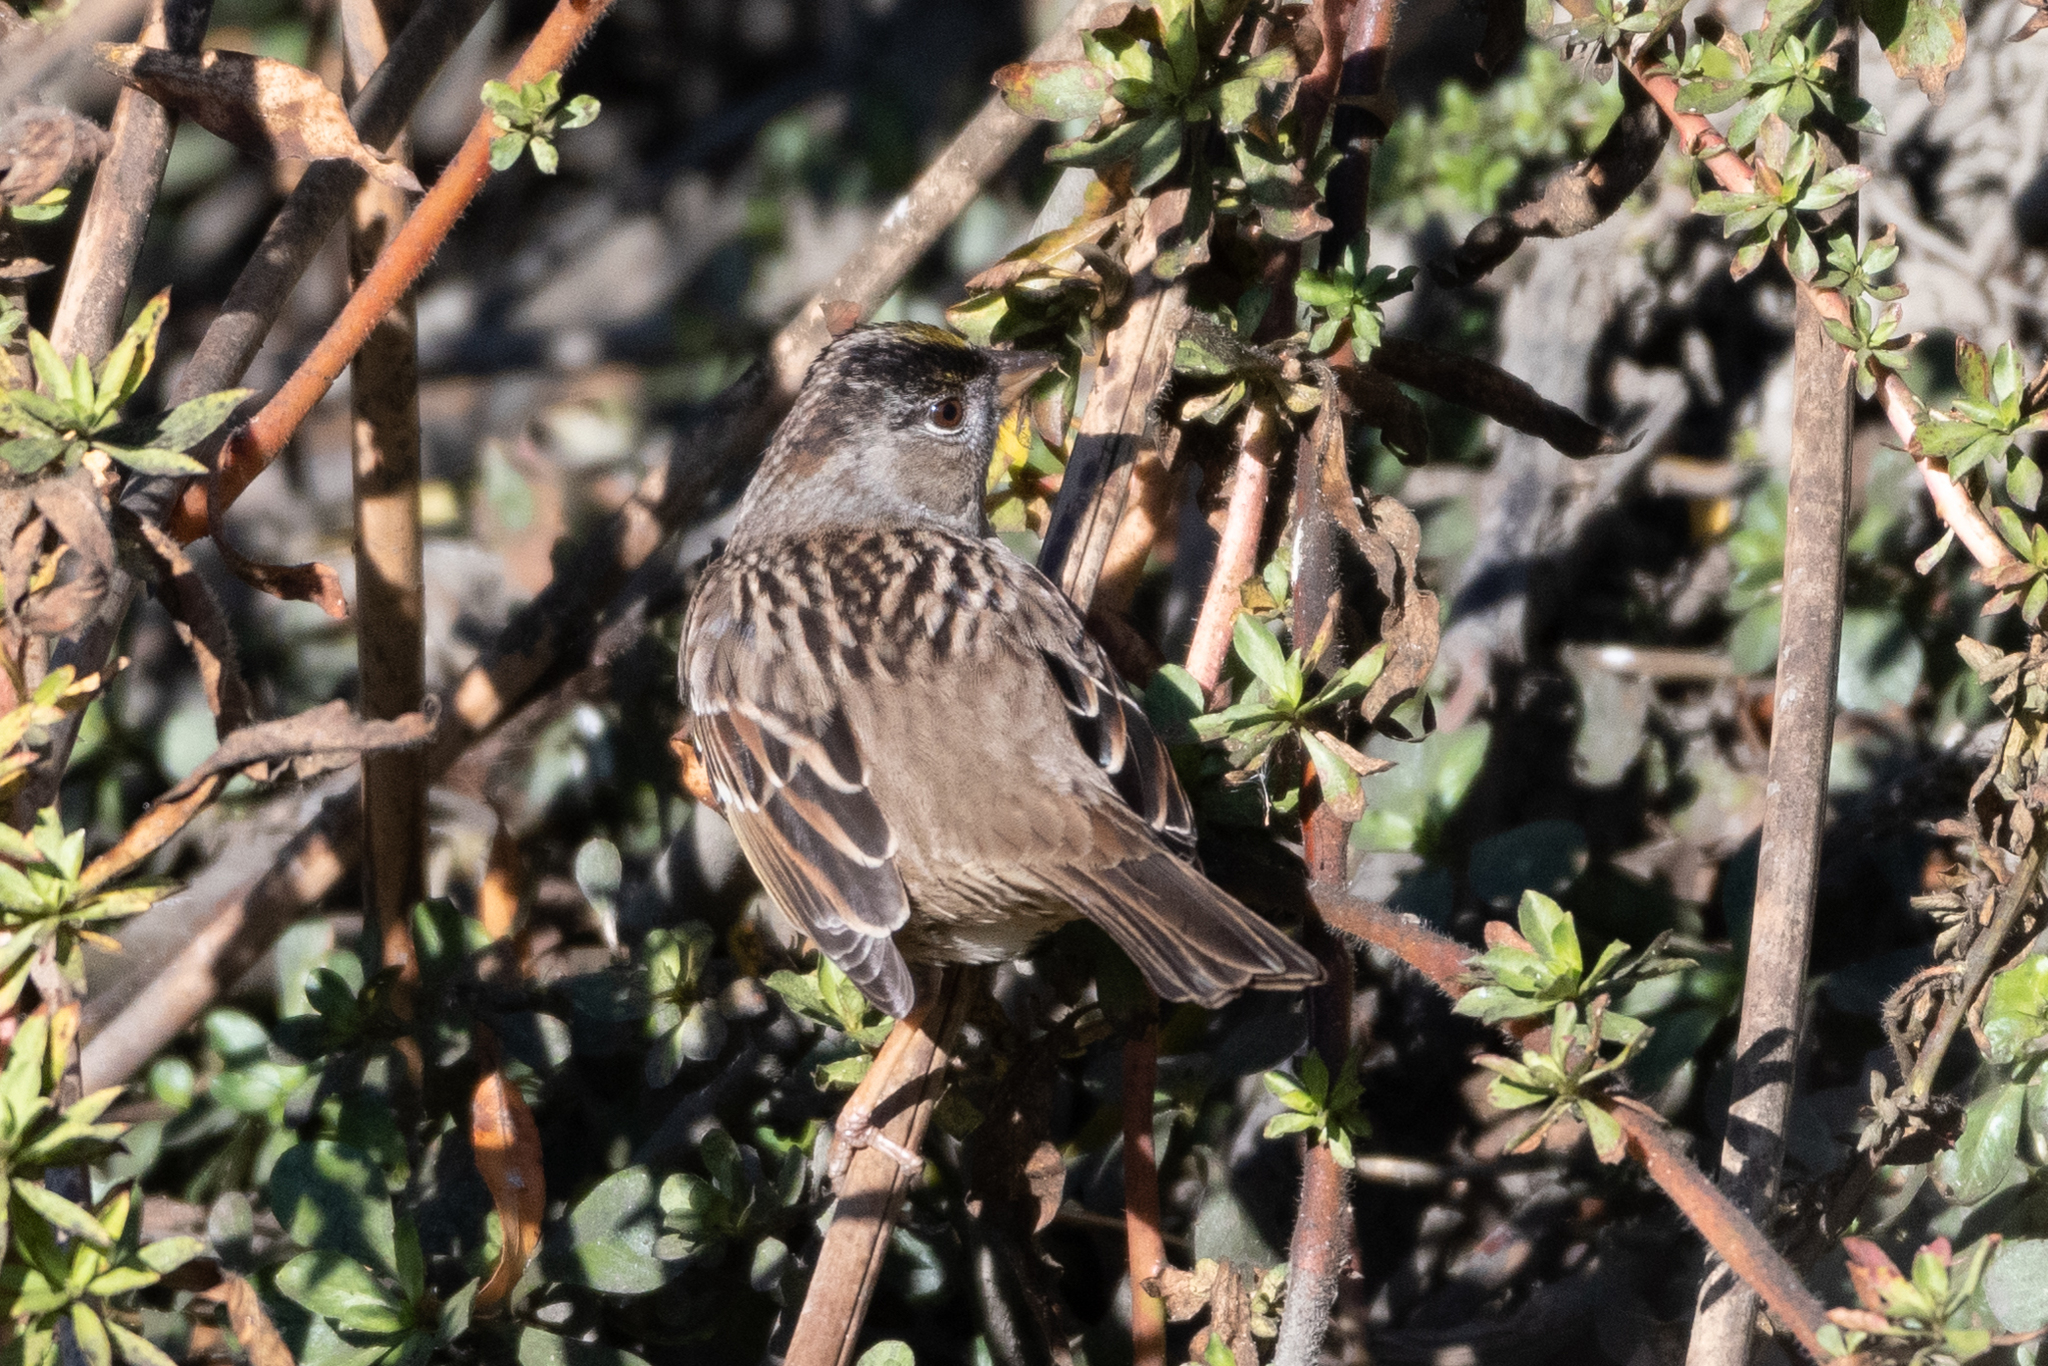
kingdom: Animalia
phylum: Chordata
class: Aves
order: Passeriformes
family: Passerellidae
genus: Zonotrichia
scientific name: Zonotrichia atricapilla
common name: Golden-crowned sparrow
